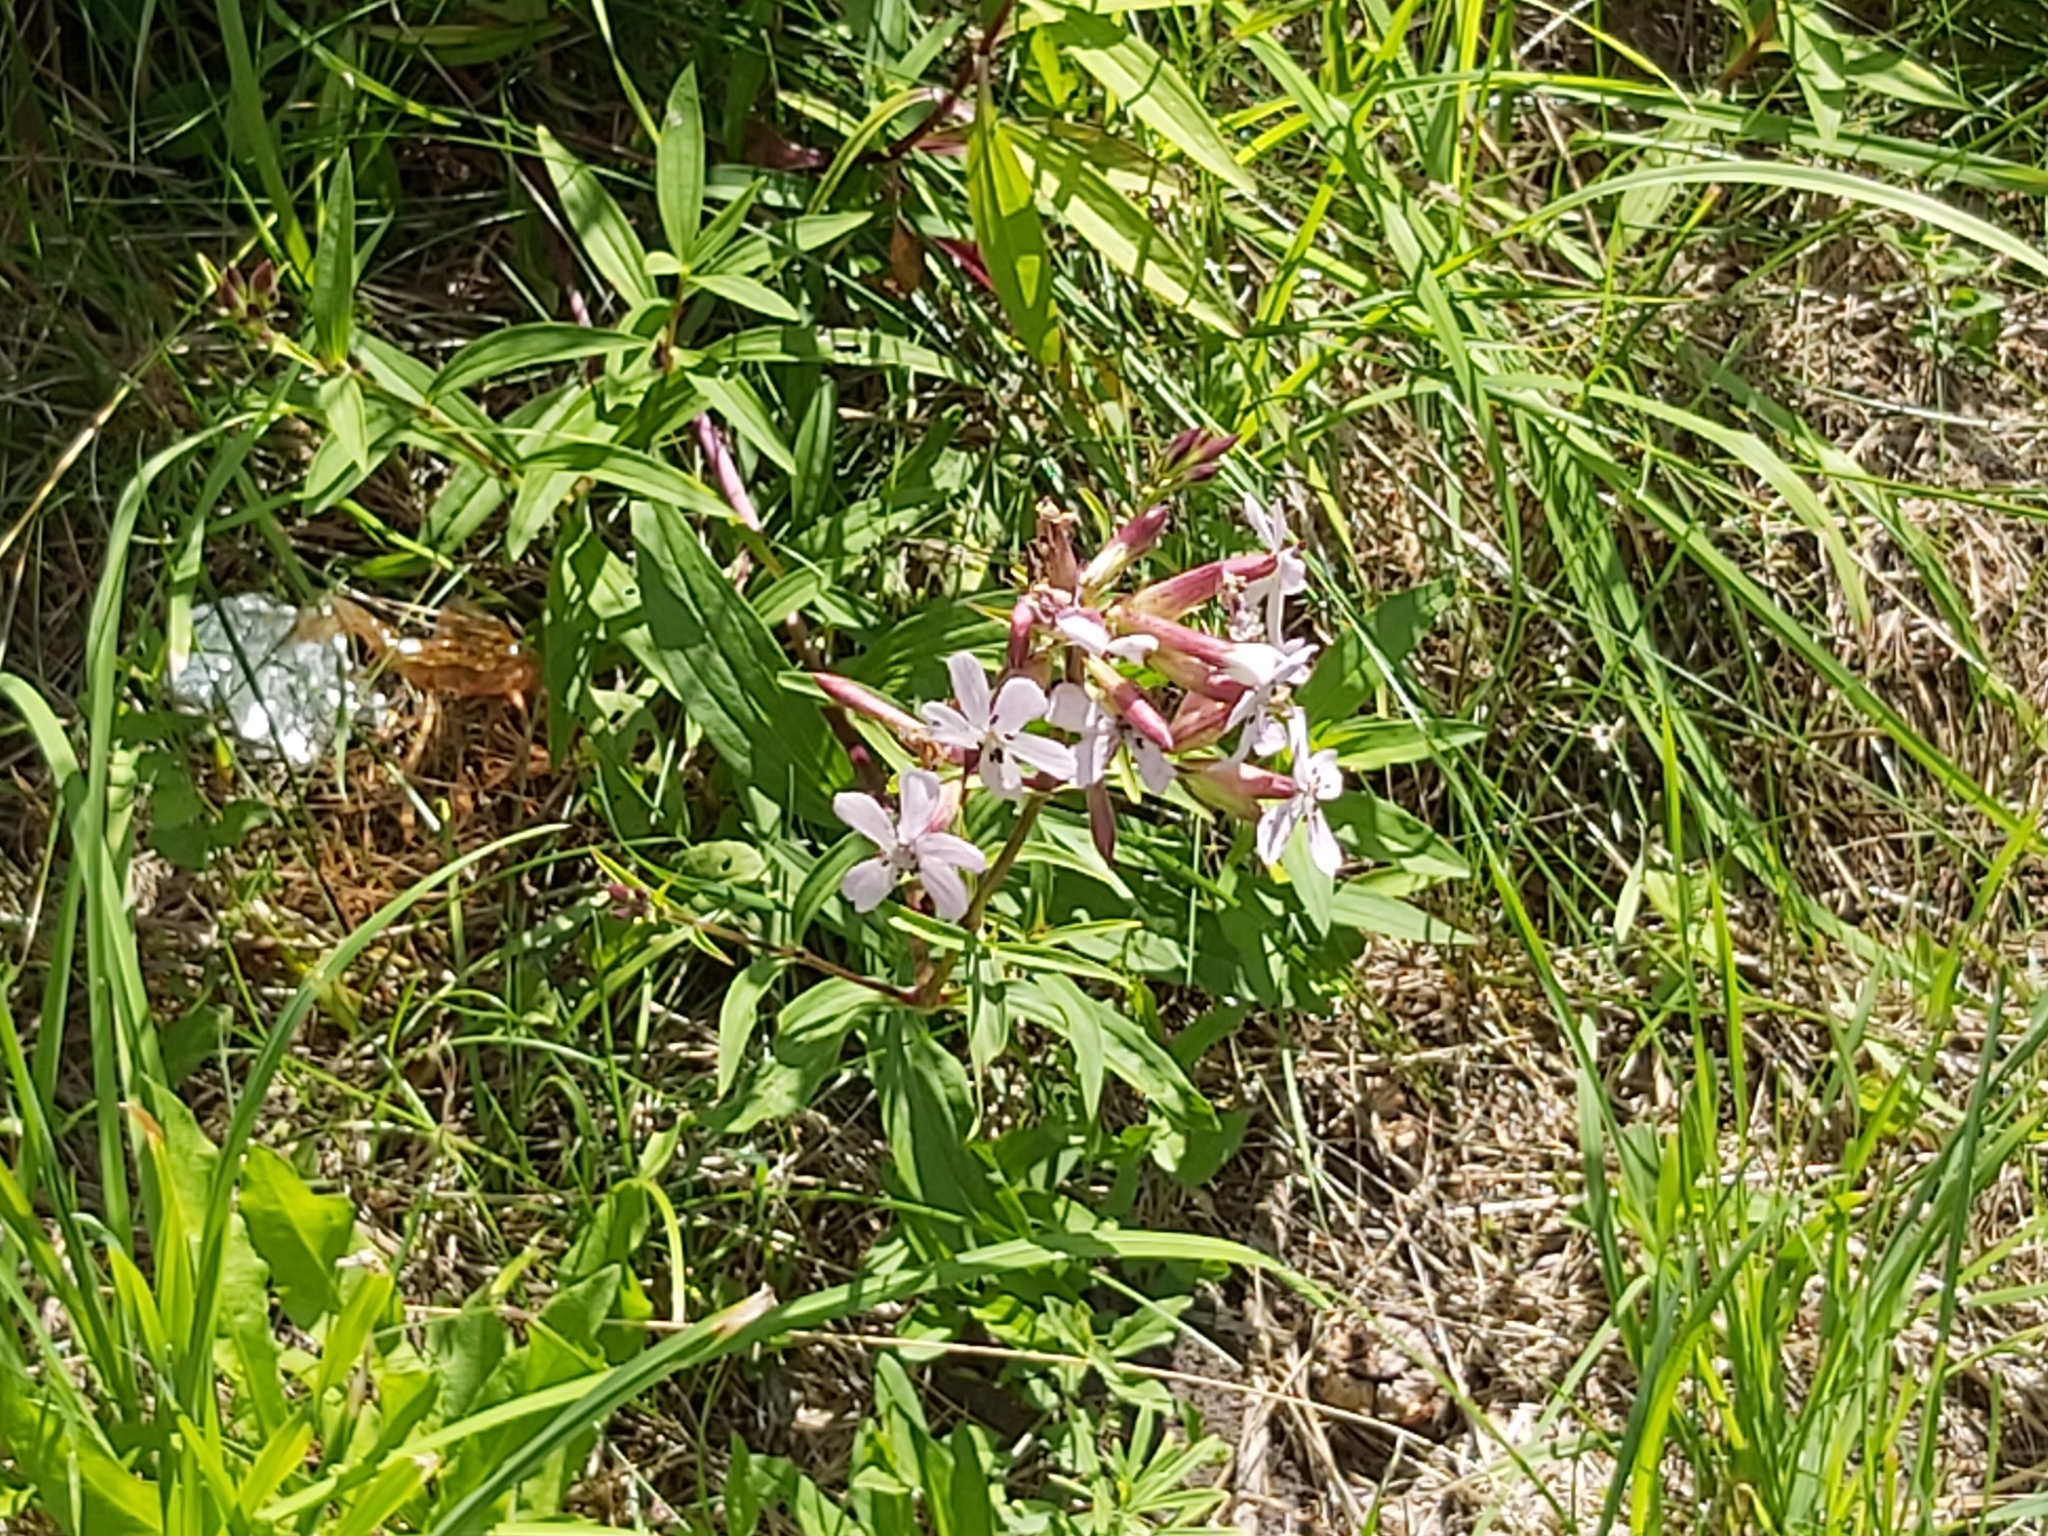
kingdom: Plantae
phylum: Tracheophyta
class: Magnoliopsida
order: Caryophyllales
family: Caryophyllaceae
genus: Saponaria
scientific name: Saponaria officinalis
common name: Soapwort
